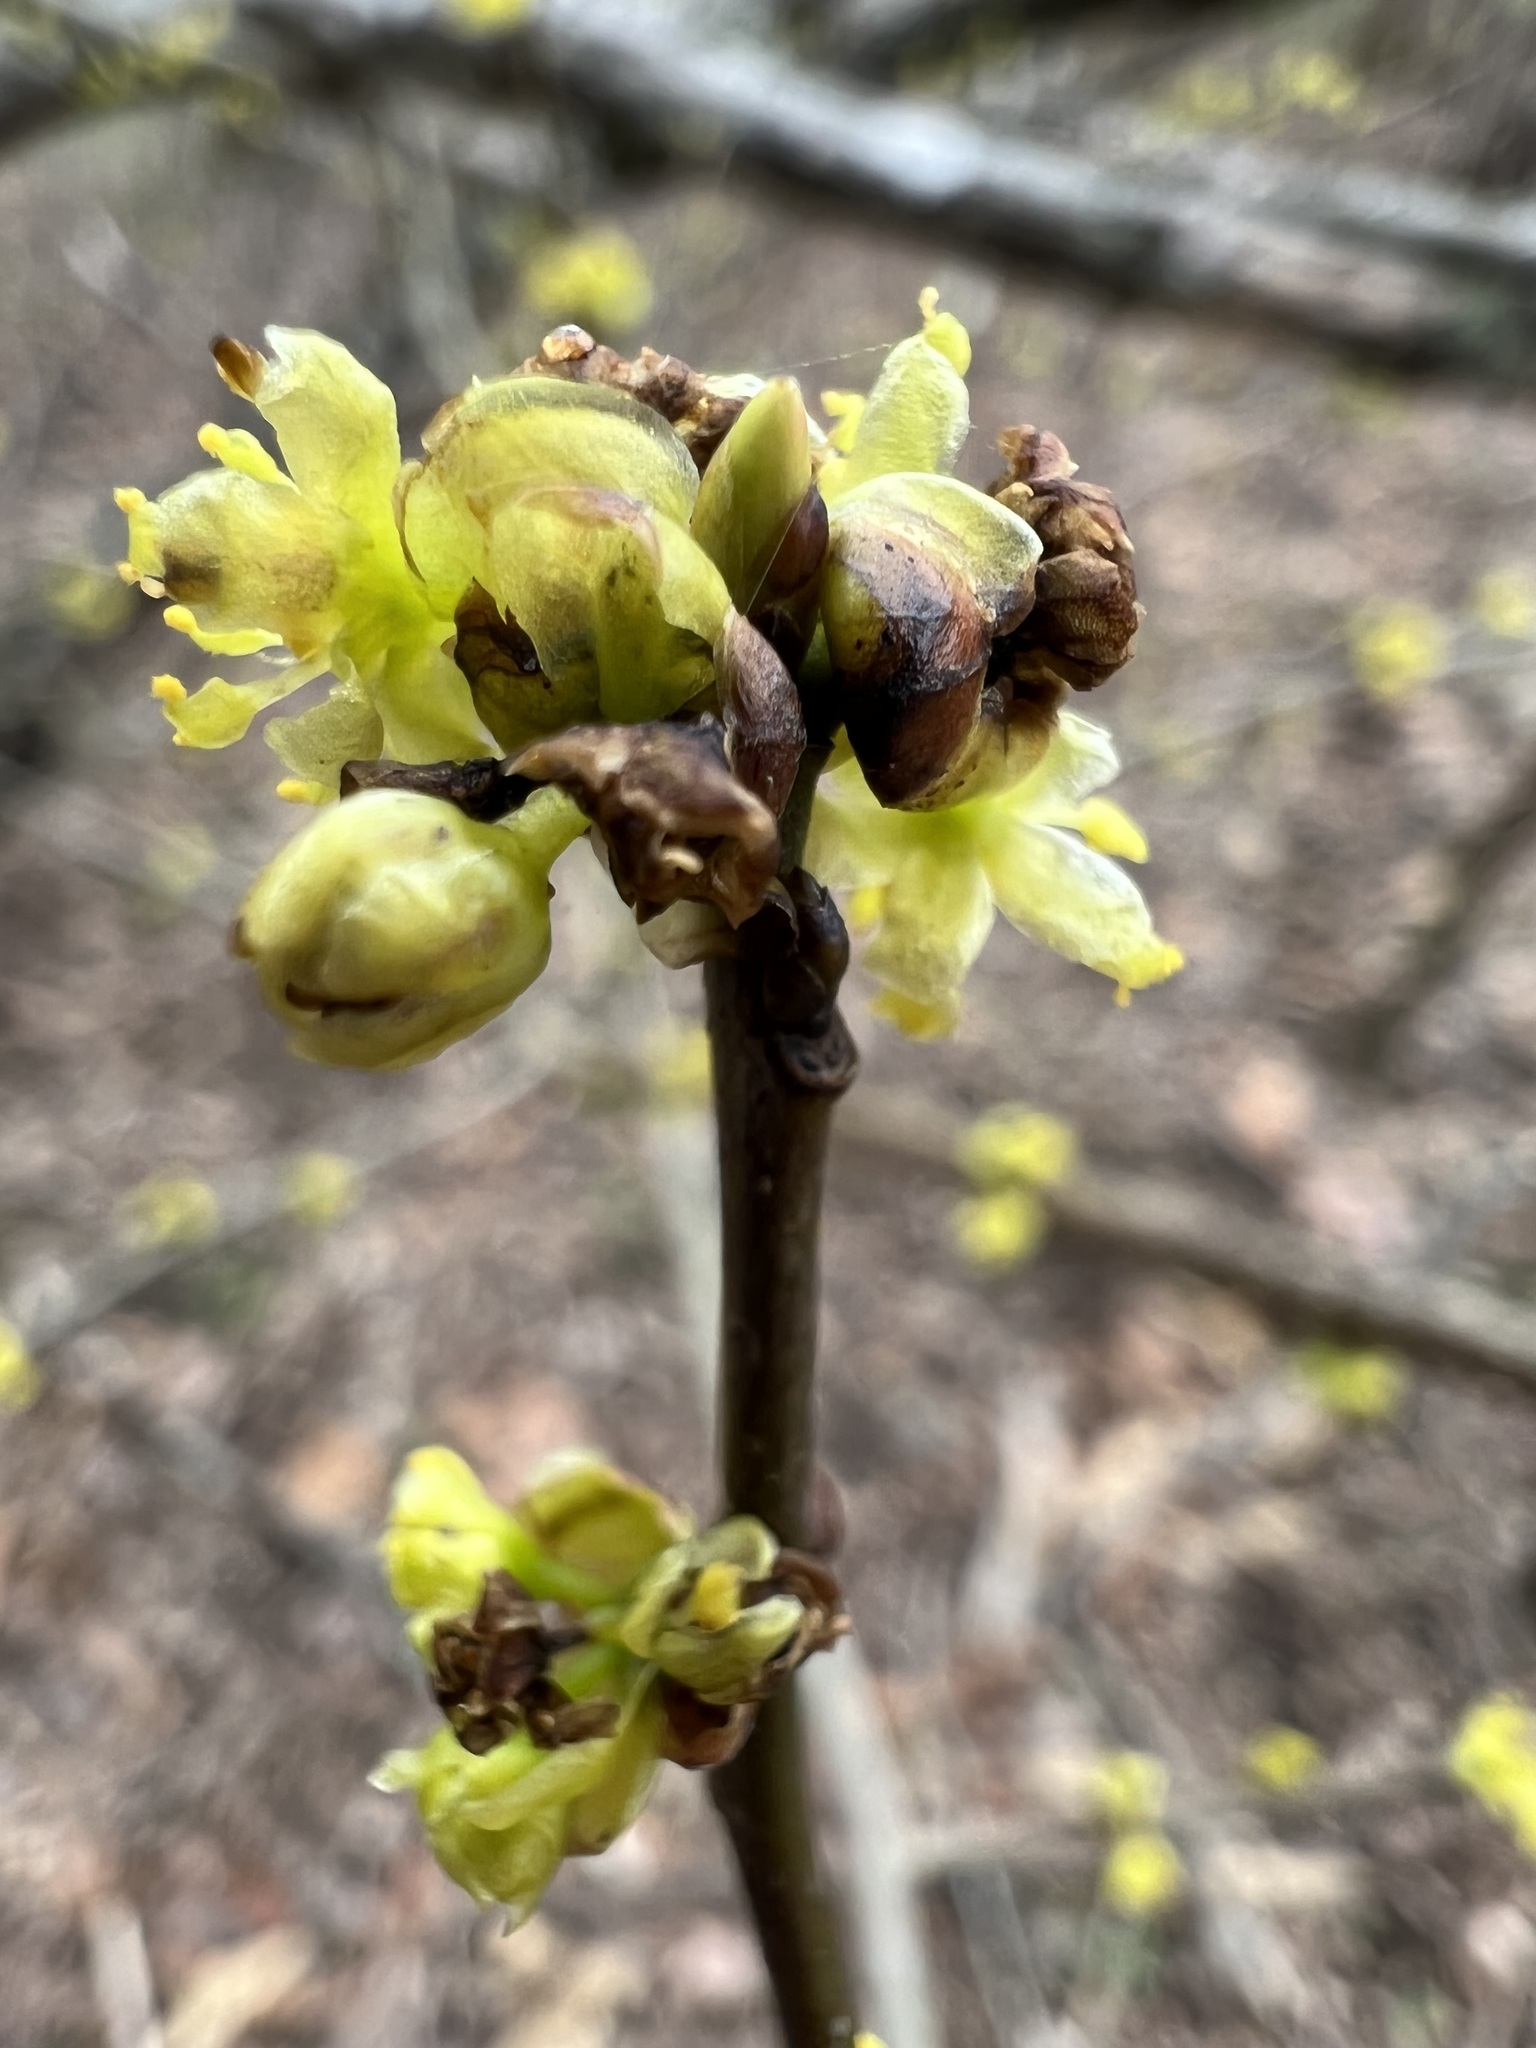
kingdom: Plantae
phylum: Tracheophyta
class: Magnoliopsida
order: Laurales
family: Lauraceae
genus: Lindera
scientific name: Lindera benzoin
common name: Spicebush
